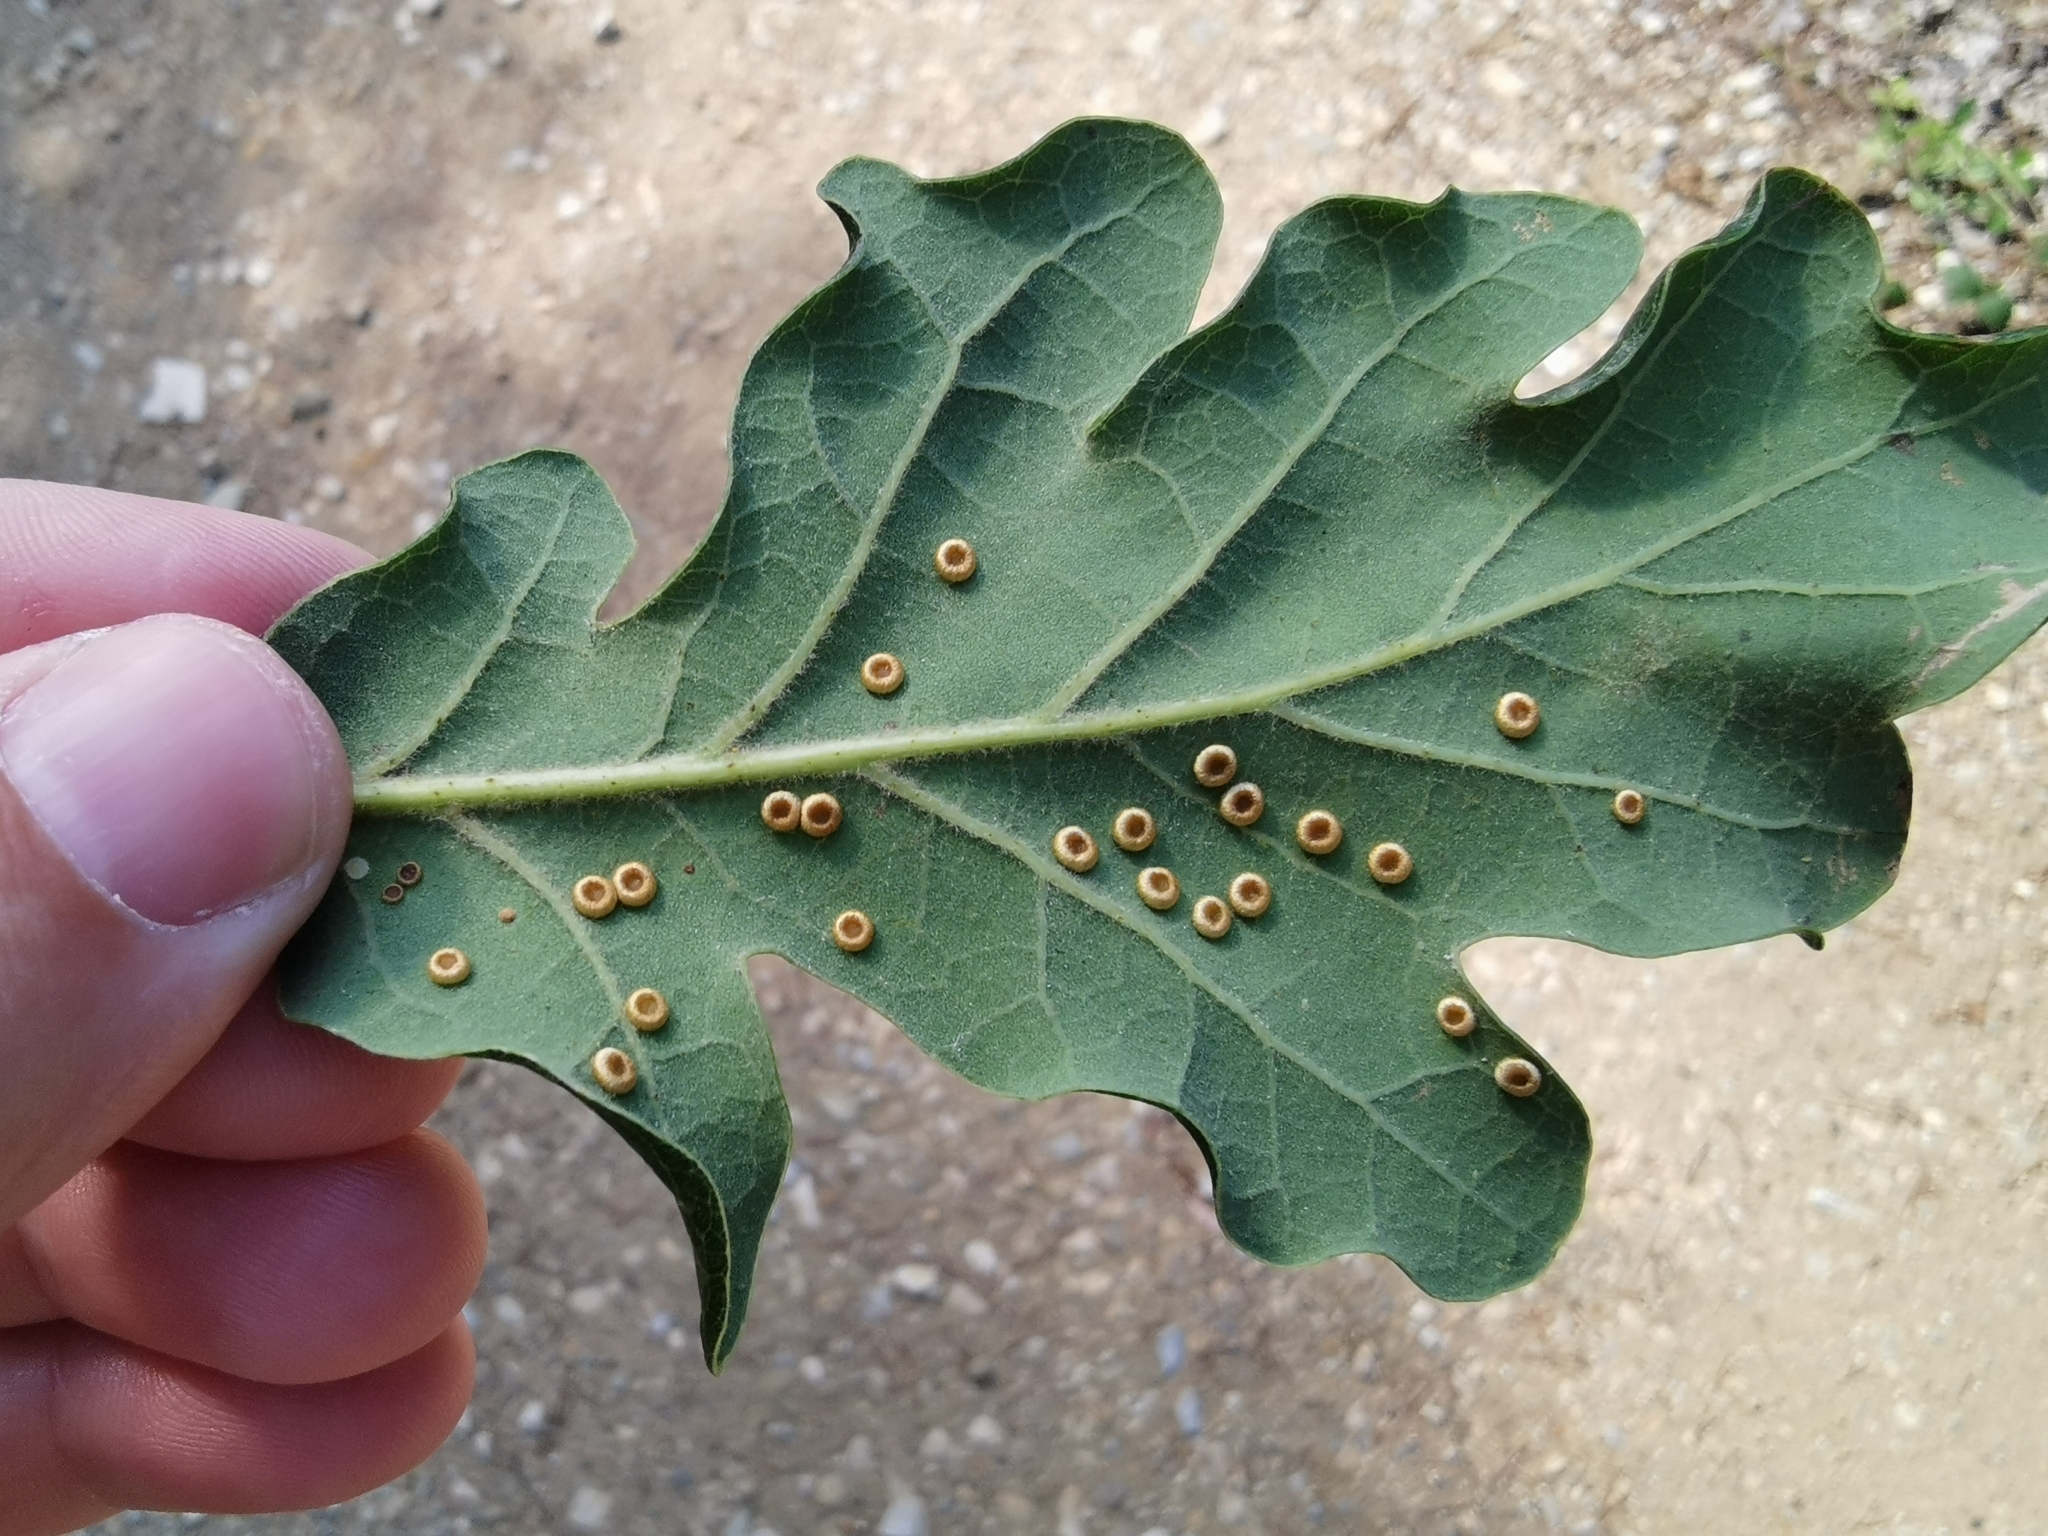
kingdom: Animalia
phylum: Arthropoda
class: Insecta
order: Hymenoptera
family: Cynipidae
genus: Neuroterus
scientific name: Neuroterus numismalis
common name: Silk-button spangle gall
